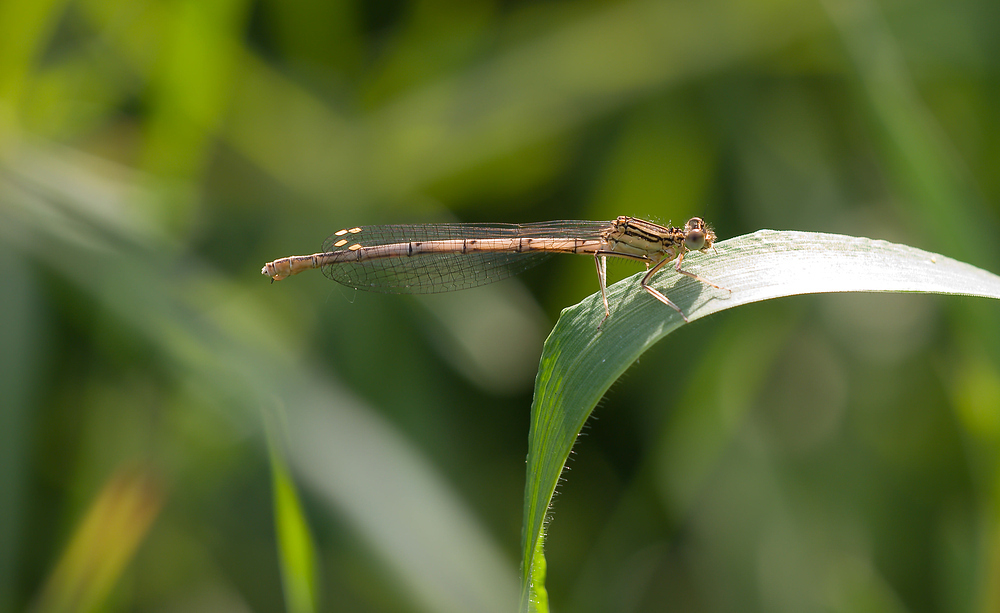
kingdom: Animalia
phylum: Arthropoda
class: Insecta
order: Odonata
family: Platycnemididae
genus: Platycnemis
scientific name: Platycnemis pennipes
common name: White-legged damselfly
